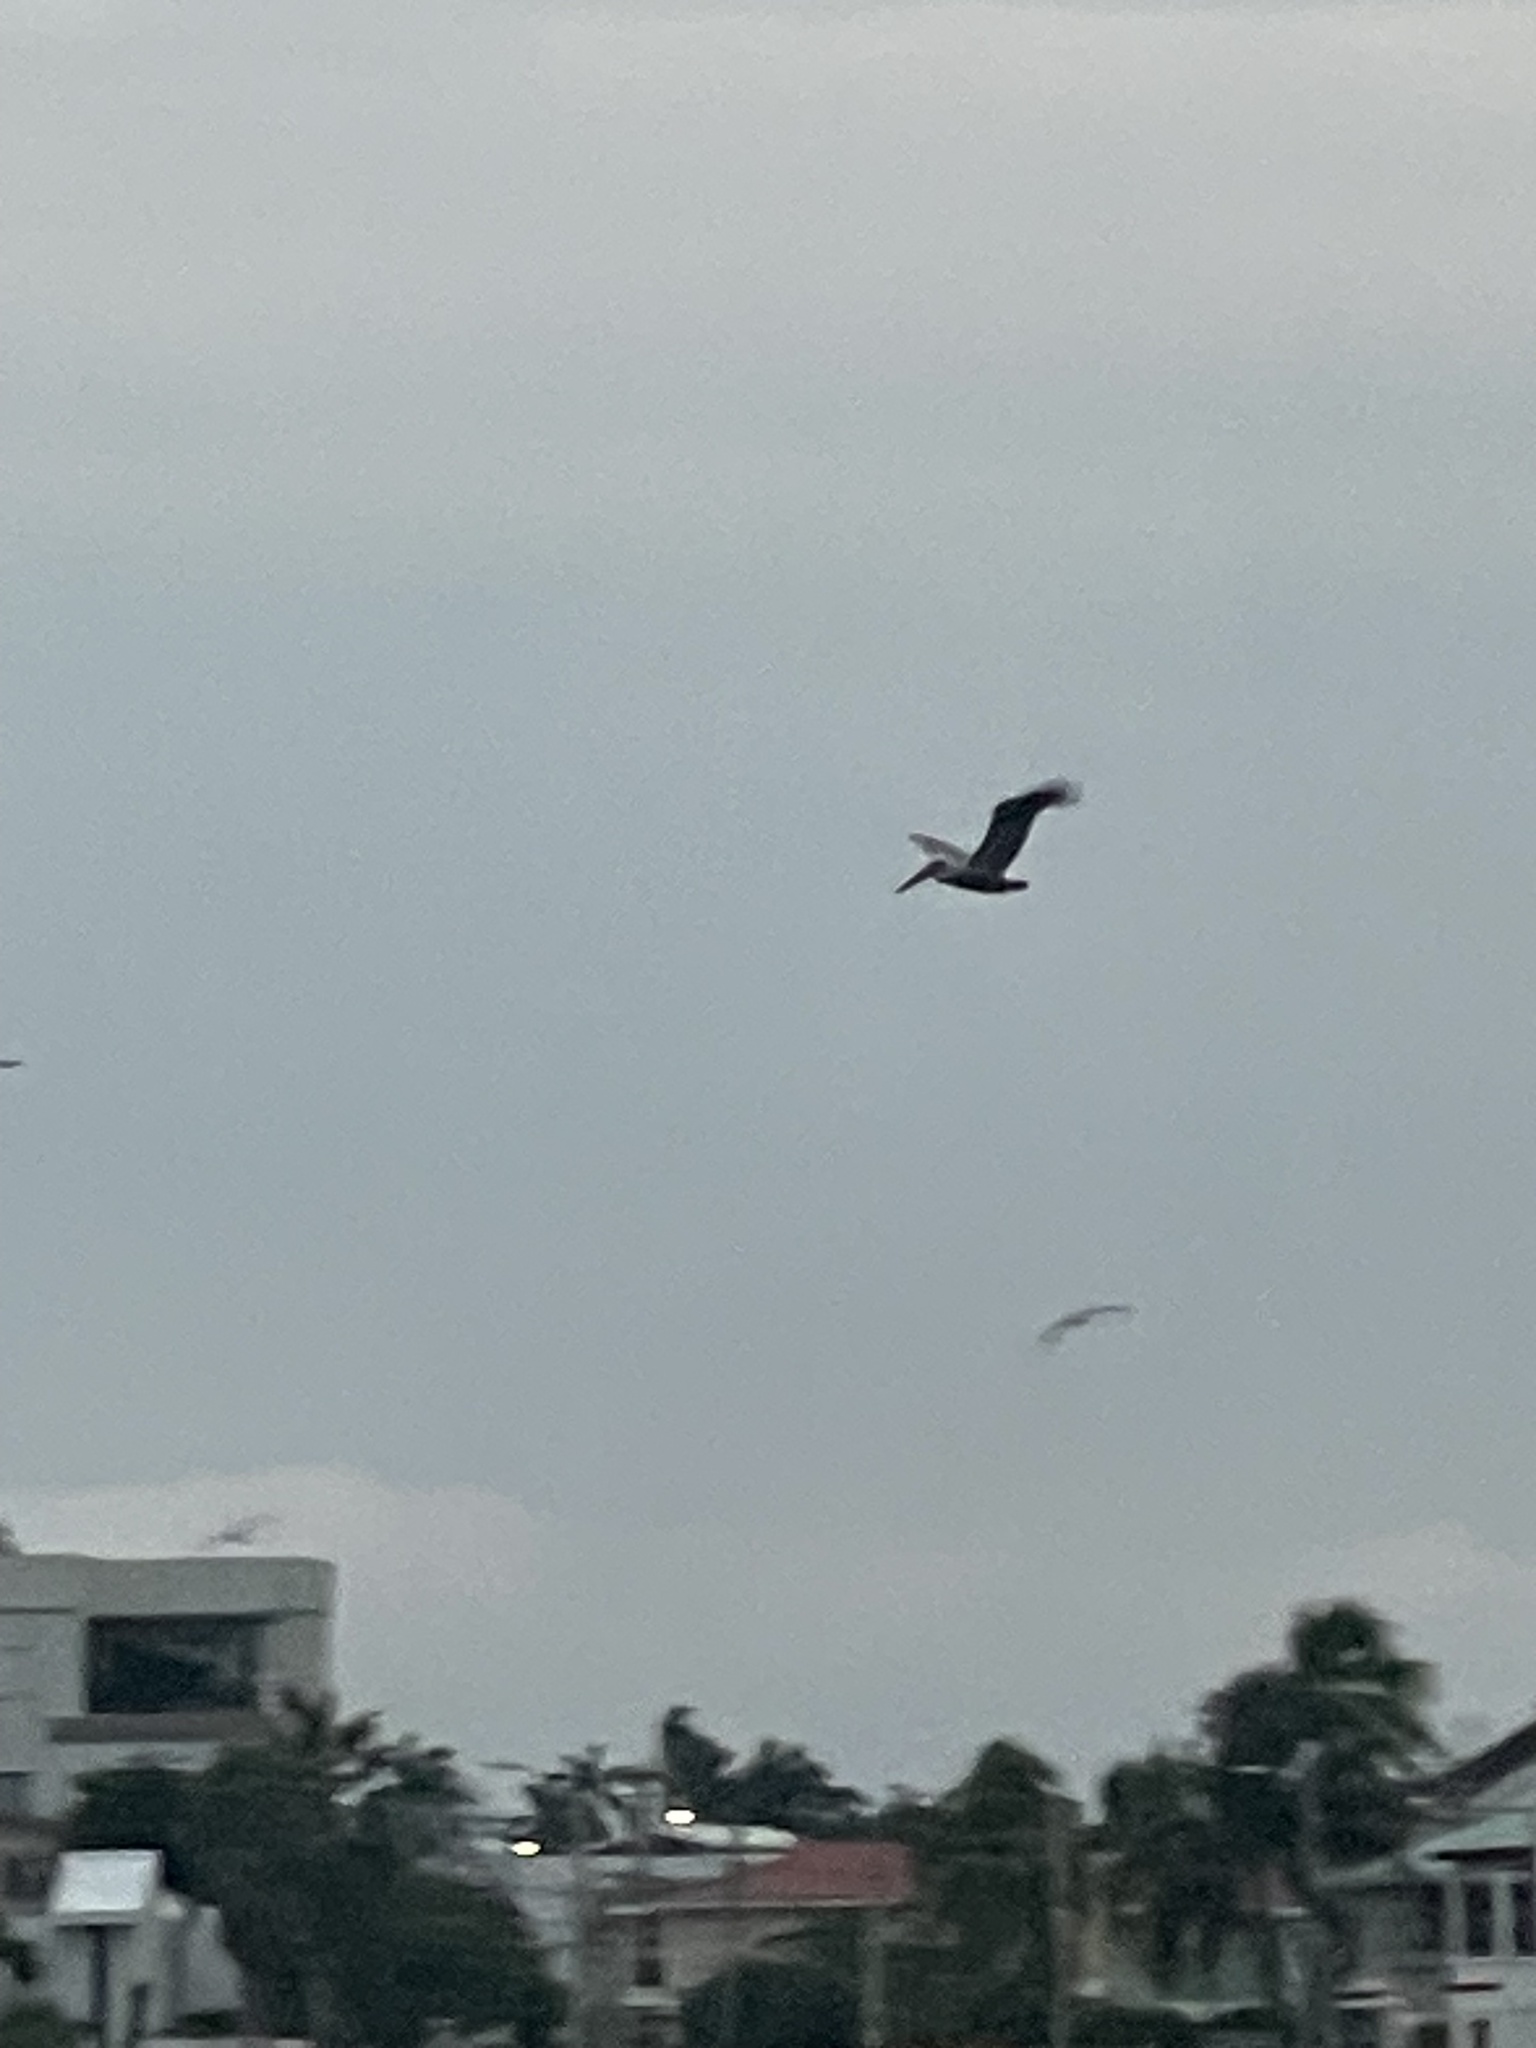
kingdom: Animalia
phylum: Chordata
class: Aves
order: Pelecaniformes
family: Pelecanidae
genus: Pelecanus
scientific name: Pelecanus occidentalis
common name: Brown pelican
